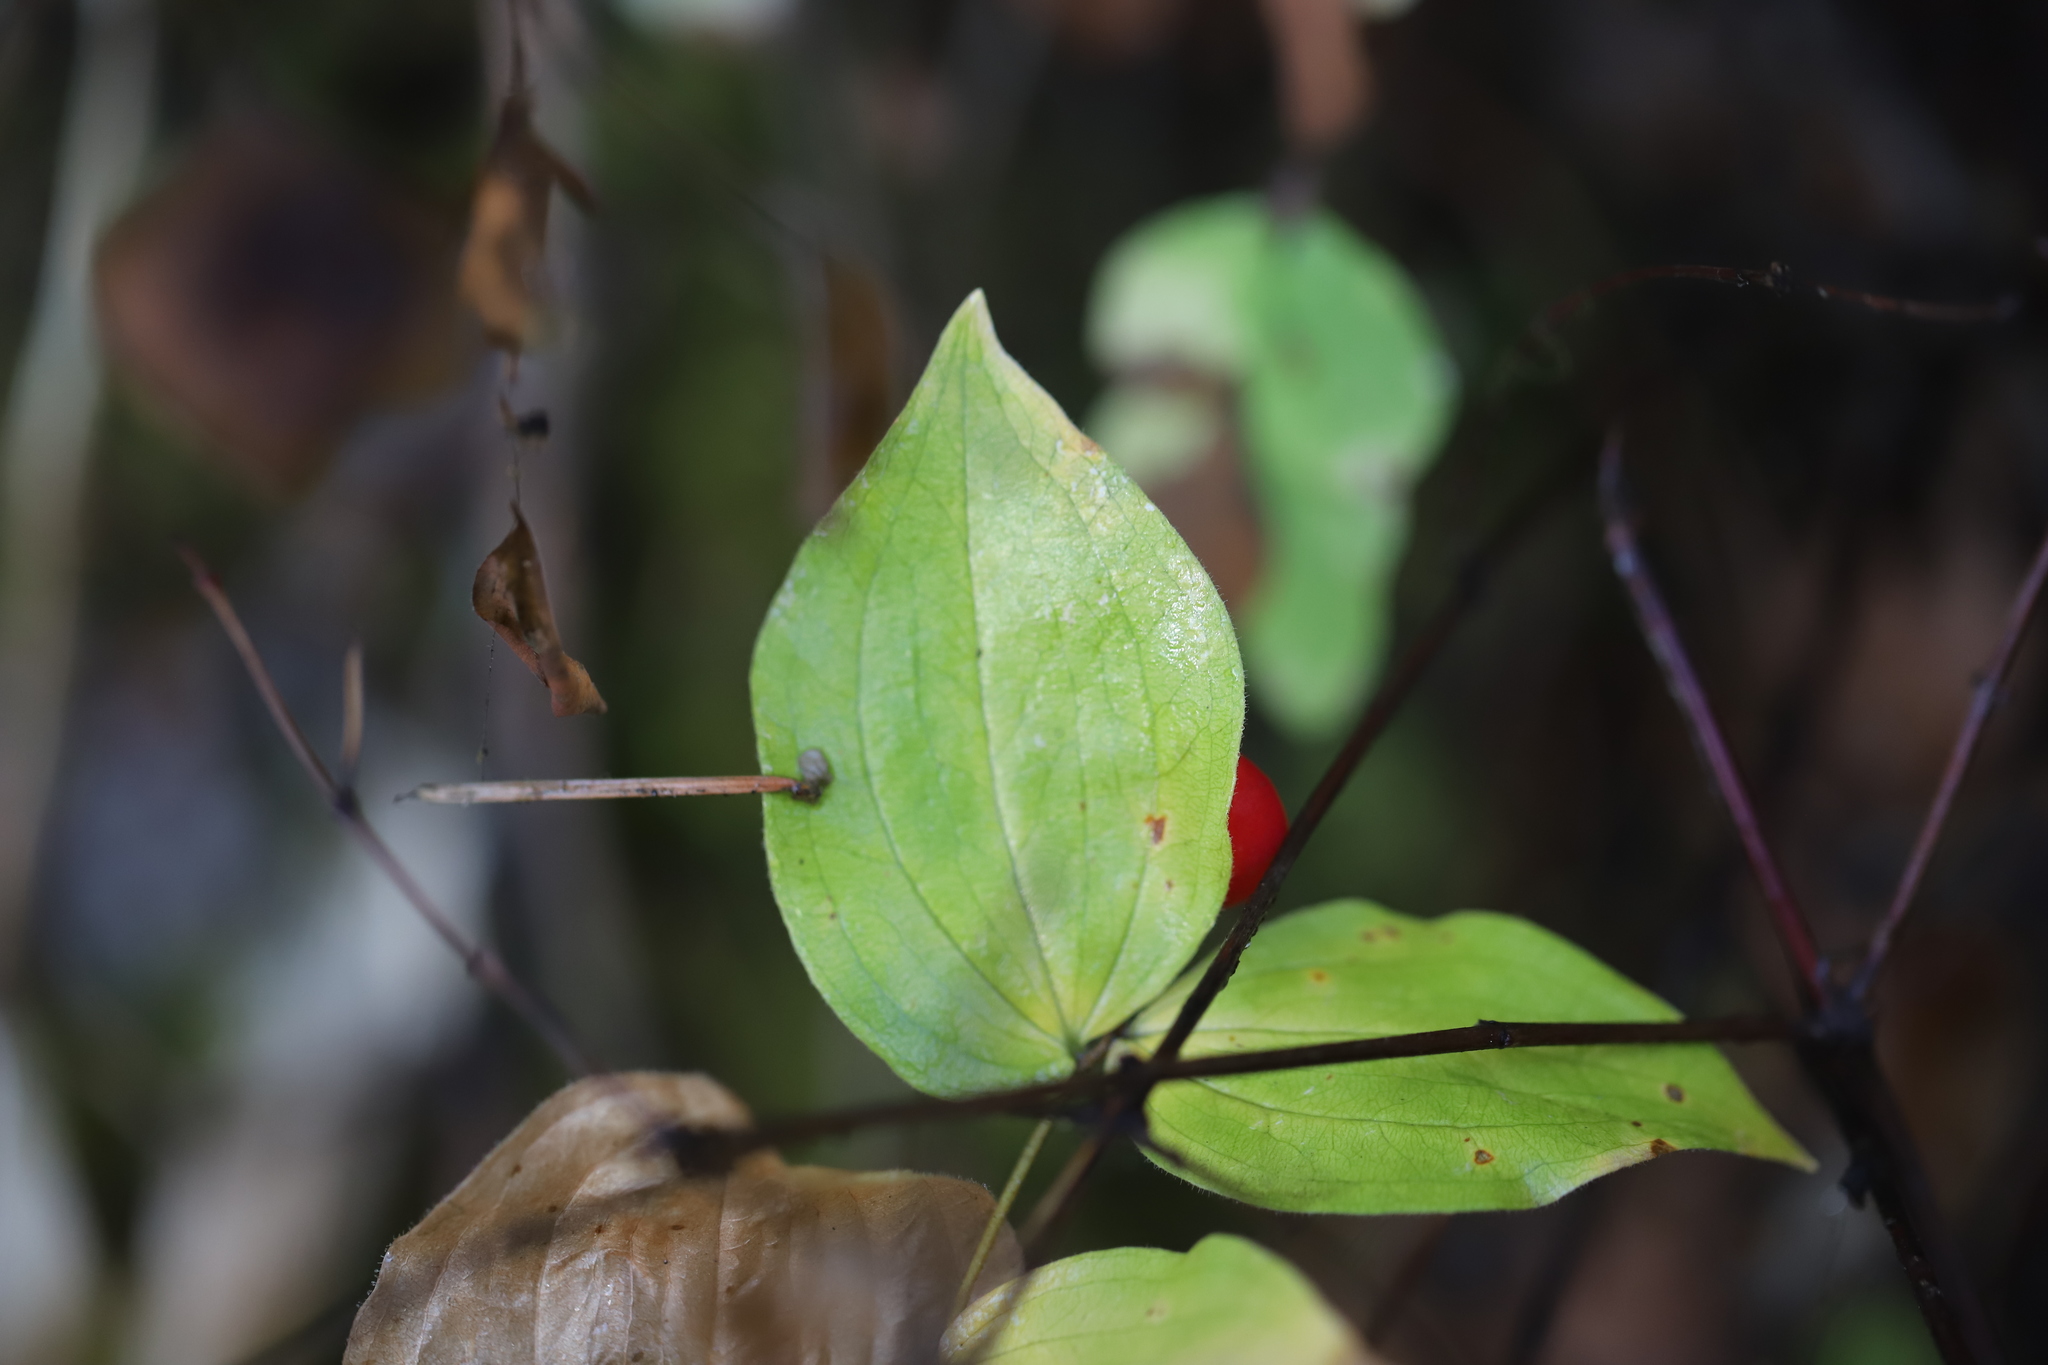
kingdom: Plantae
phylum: Tracheophyta
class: Liliopsida
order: Liliales
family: Liliaceae
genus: Prosartes
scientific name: Prosartes trachycarpa
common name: Rough-fruit fairy-bells
